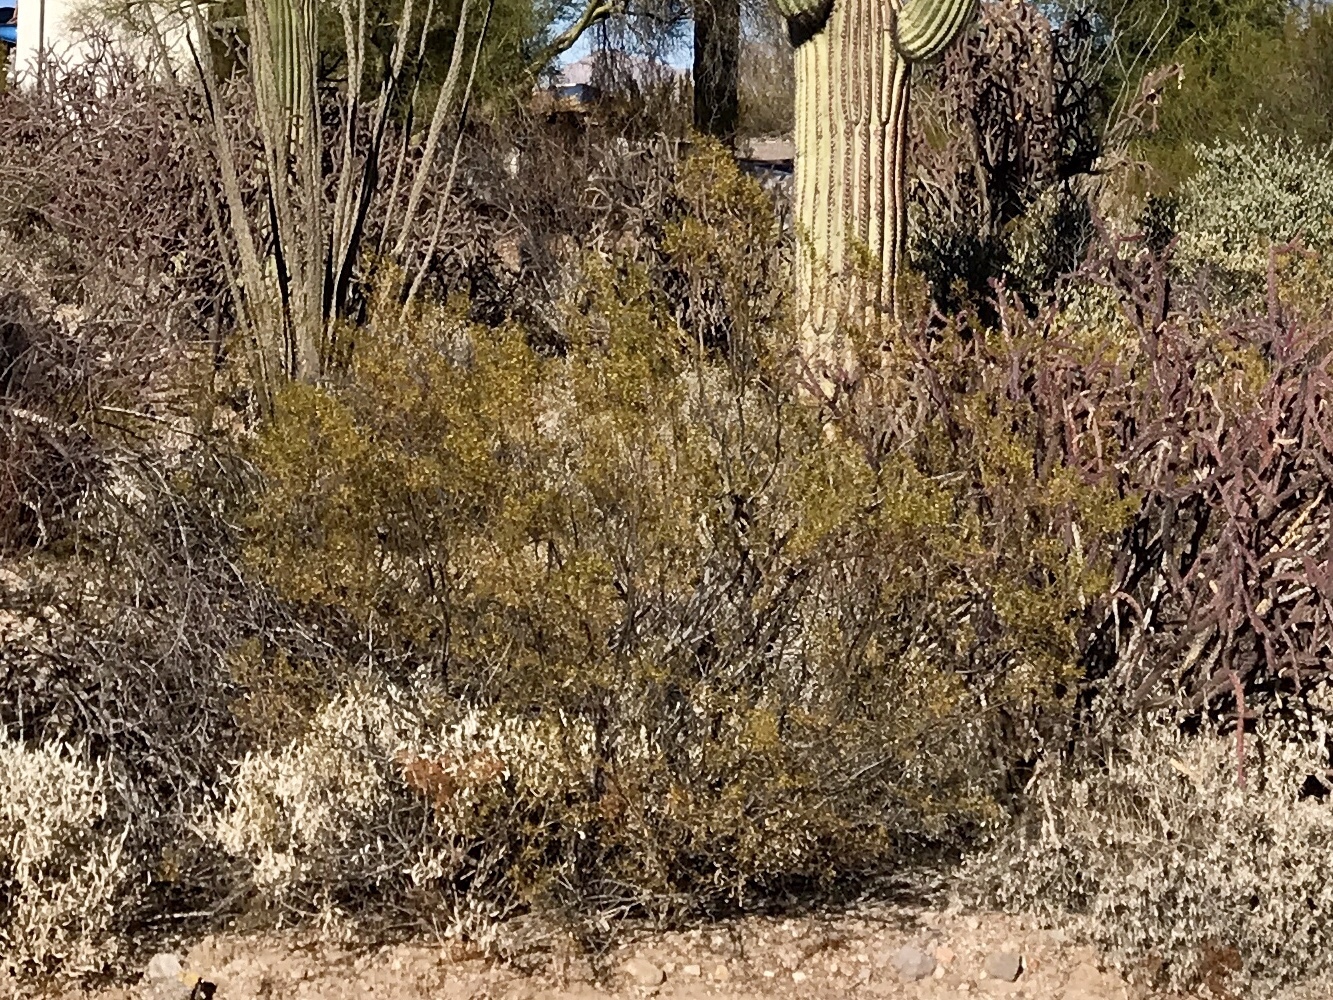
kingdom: Plantae
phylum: Tracheophyta
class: Magnoliopsida
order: Zygophyllales
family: Zygophyllaceae
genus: Larrea
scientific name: Larrea tridentata
